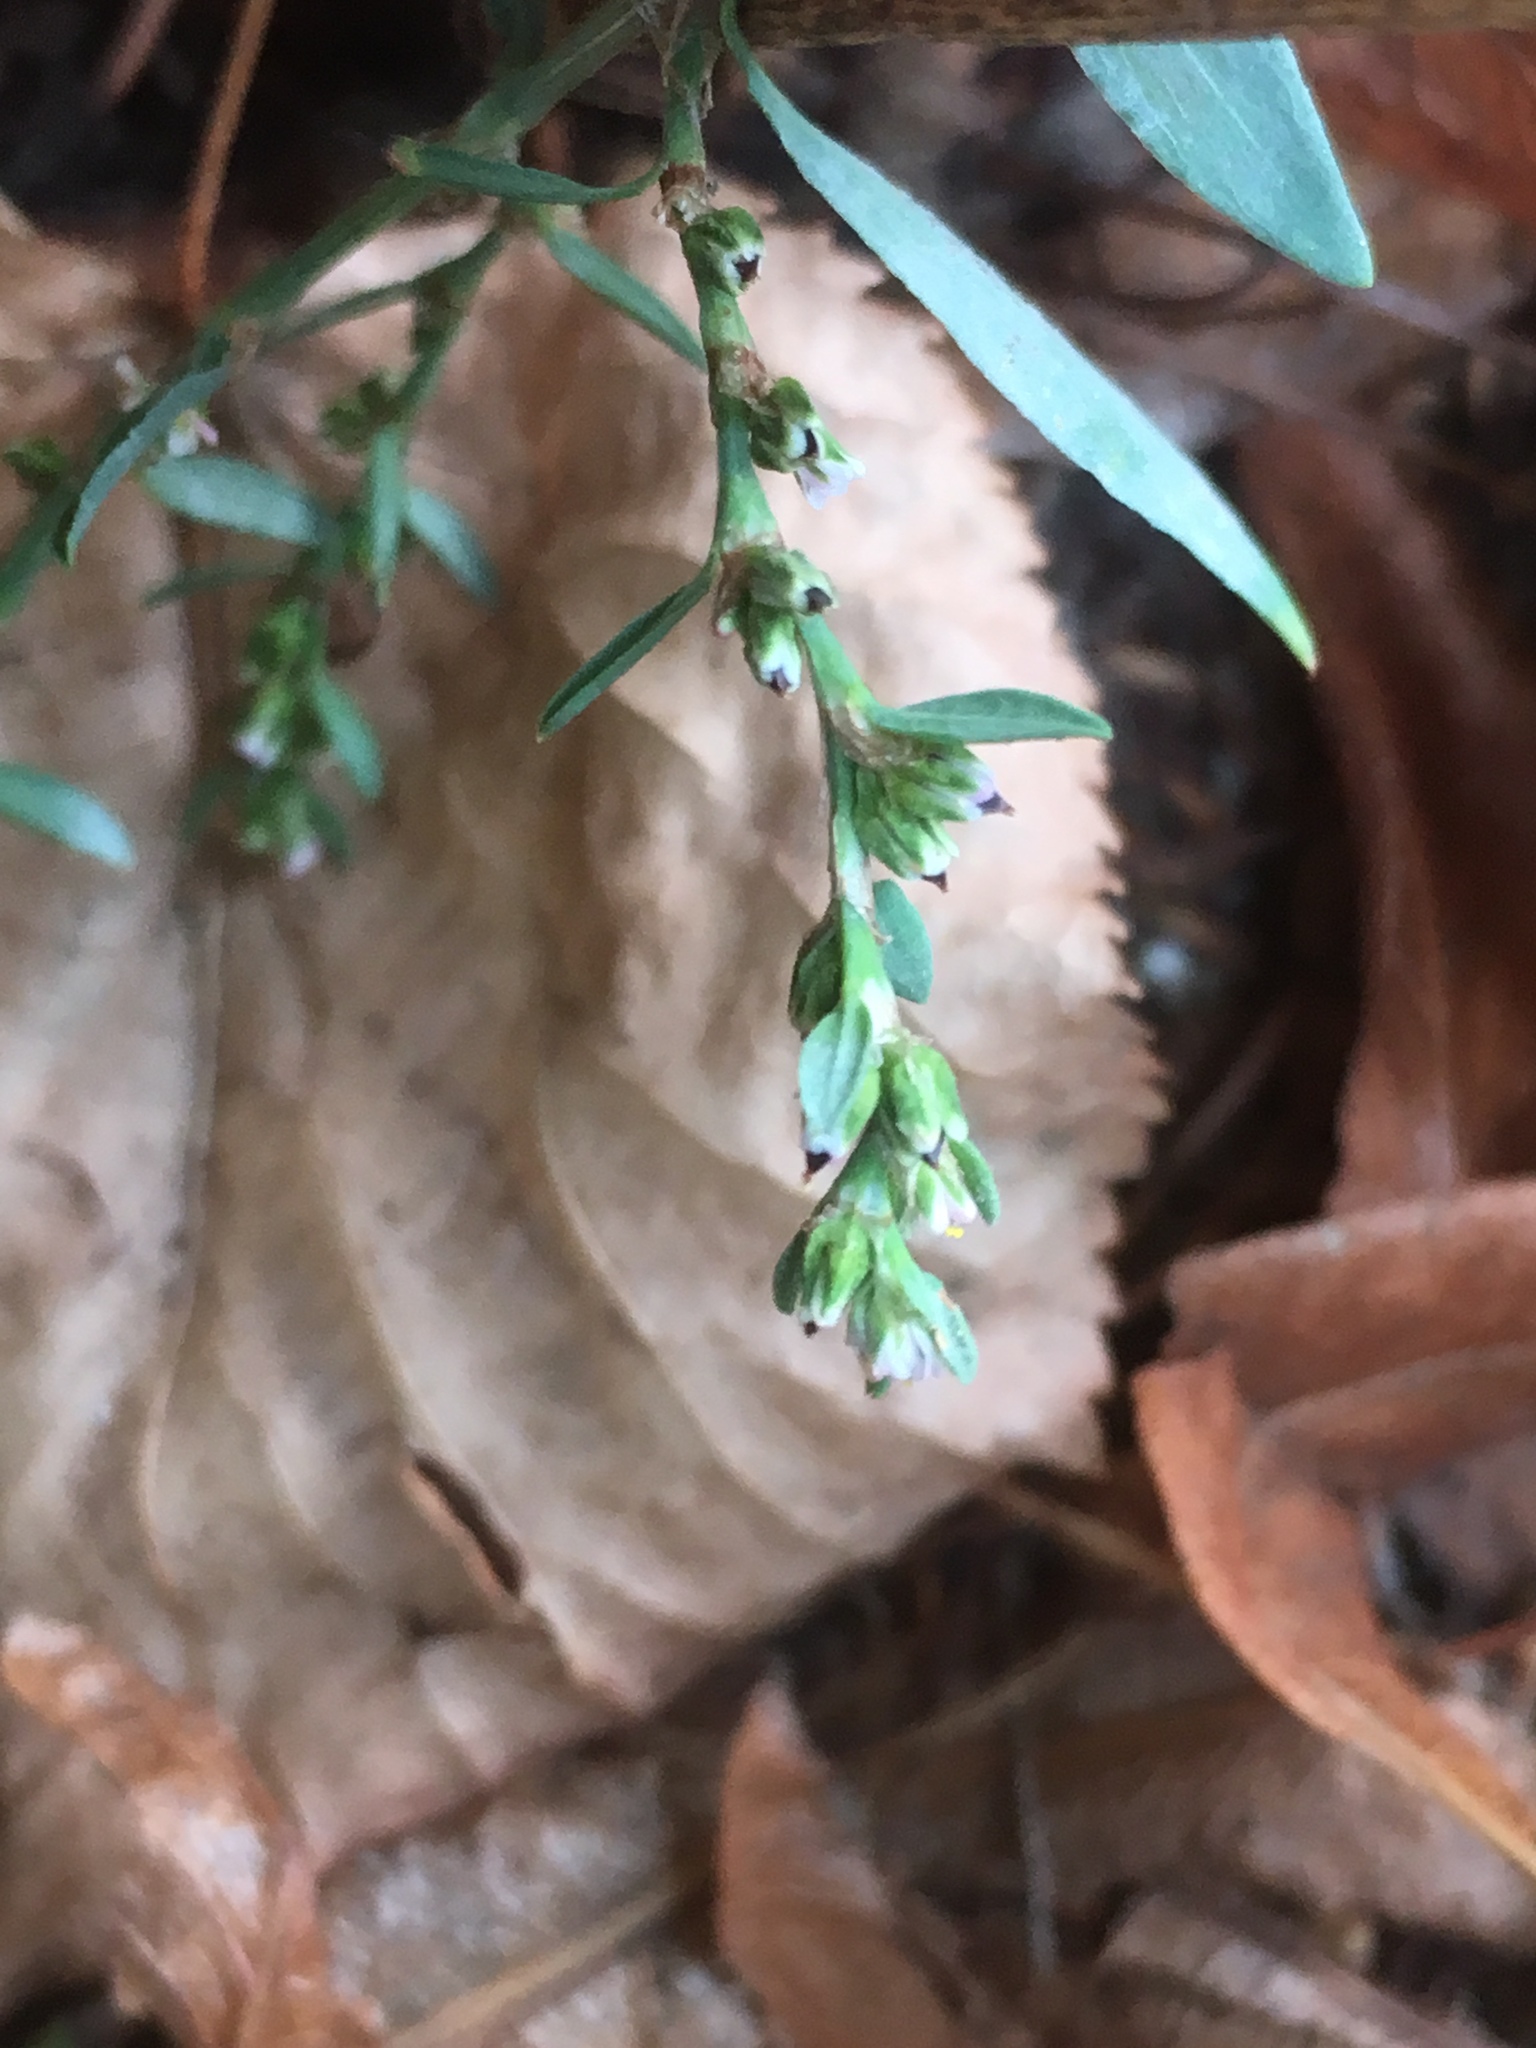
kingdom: Plantae
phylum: Tracheophyta
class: Magnoliopsida
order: Caryophyllales
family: Polygonaceae
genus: Polygonum
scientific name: Polygonum aviculare
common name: Prostrate knotweed
